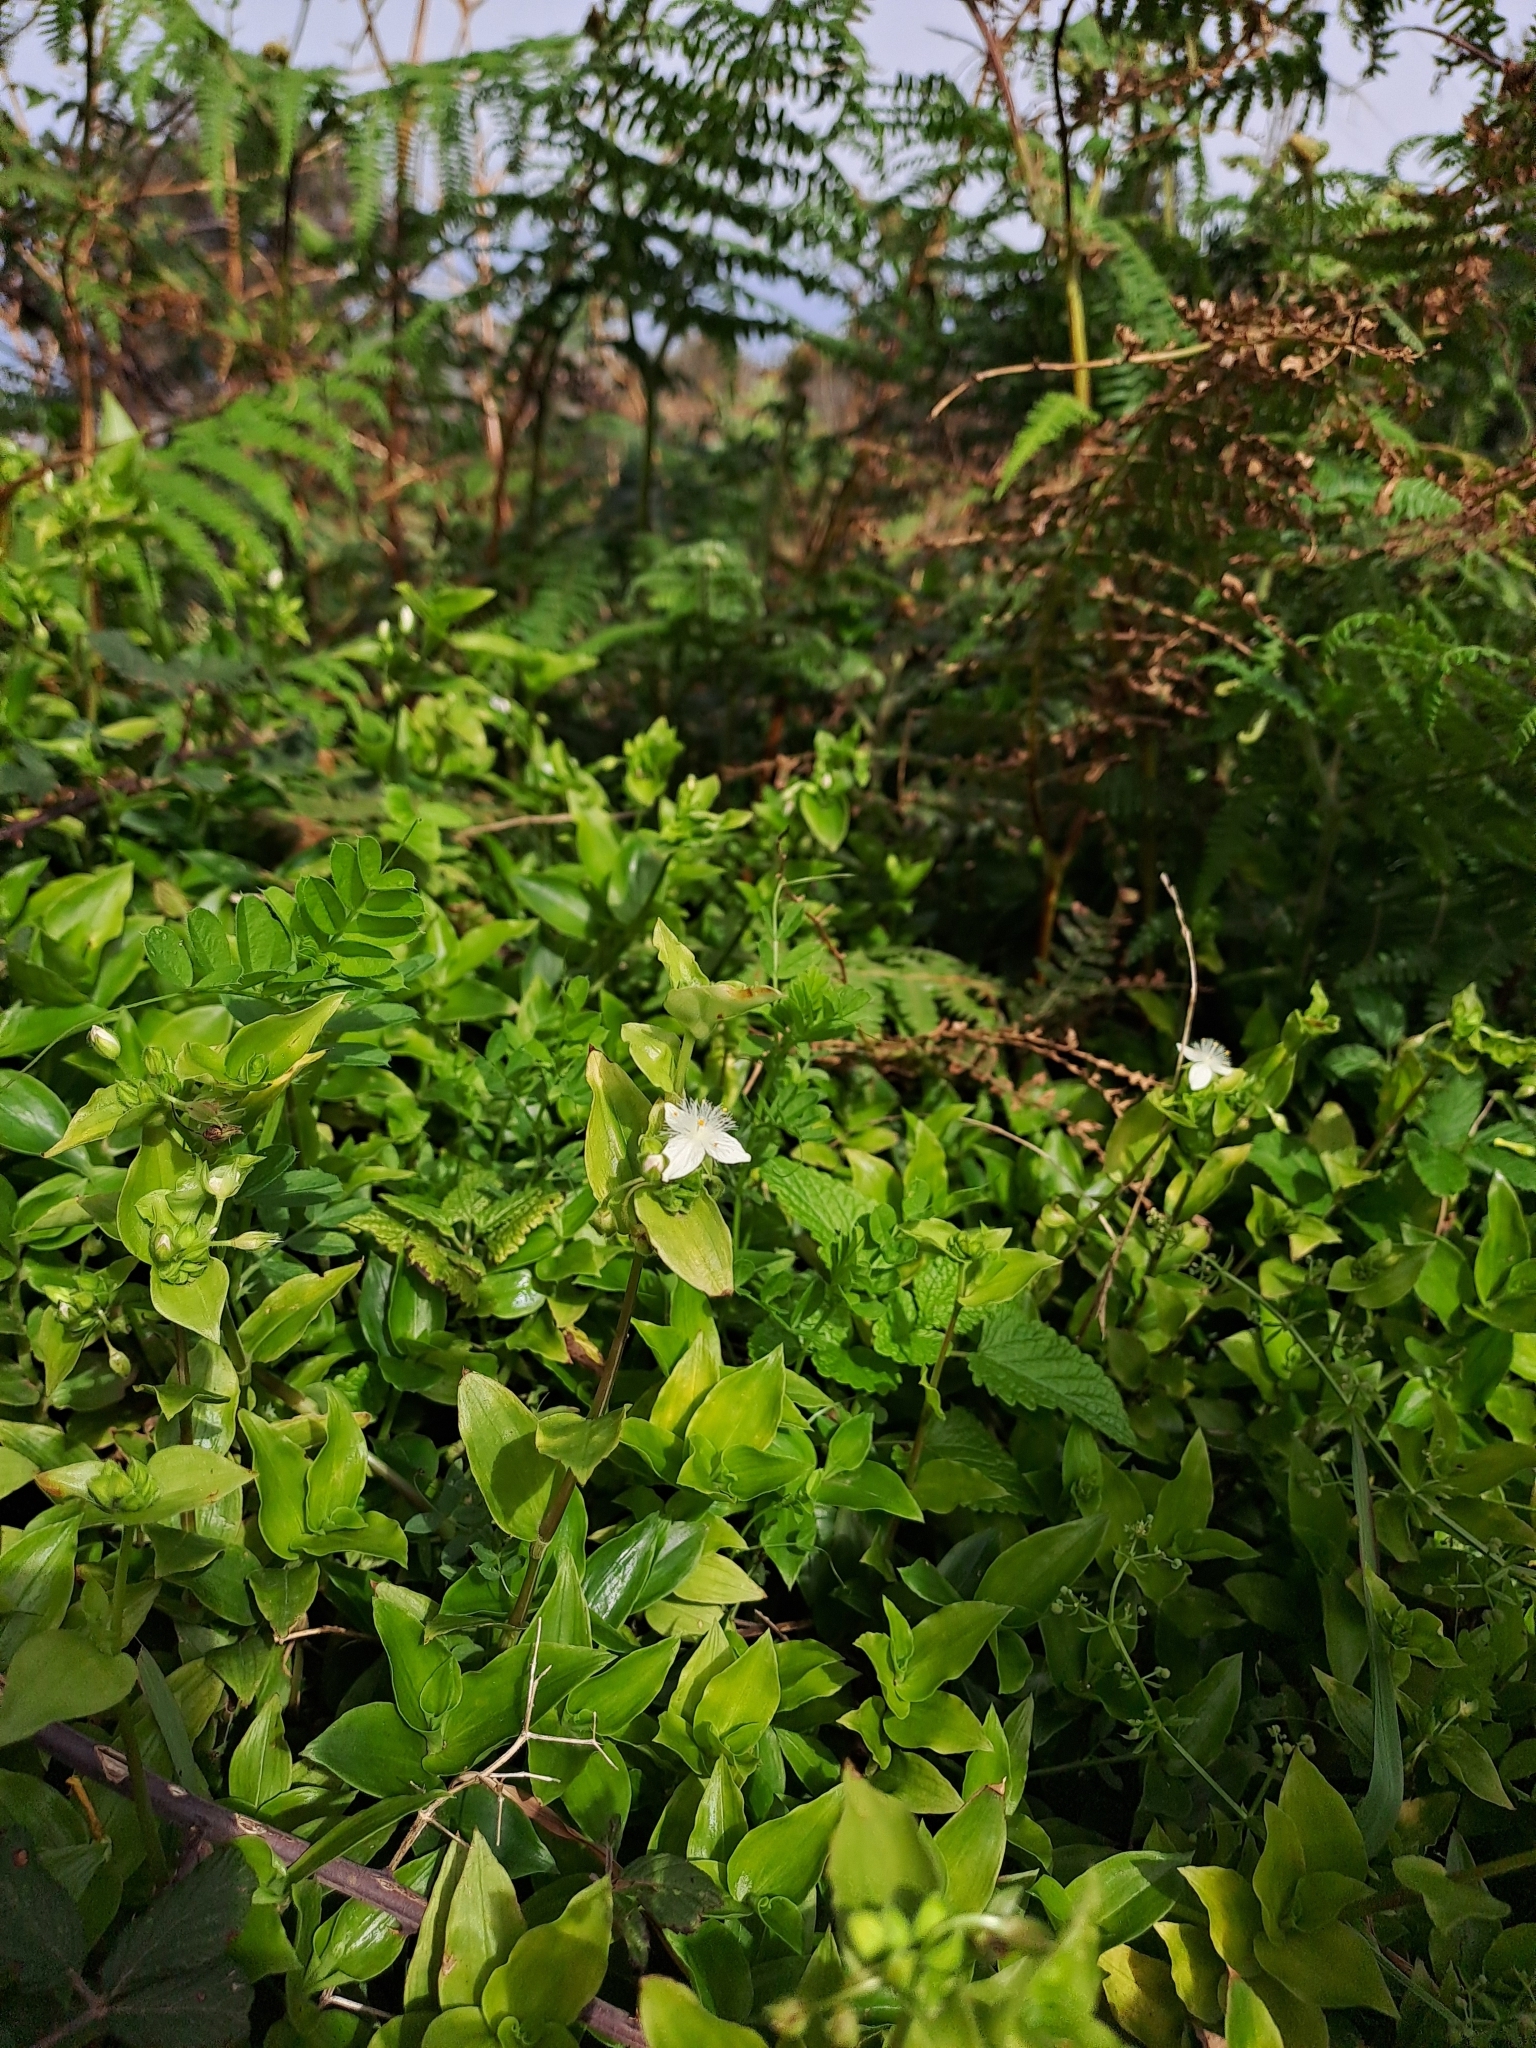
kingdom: Plantae
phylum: Tracheophyta
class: Liliopsida
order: Commelinales
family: Commelinaceae
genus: Tradescantia
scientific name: Tradescantia fluminensis
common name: Wandering-jew
